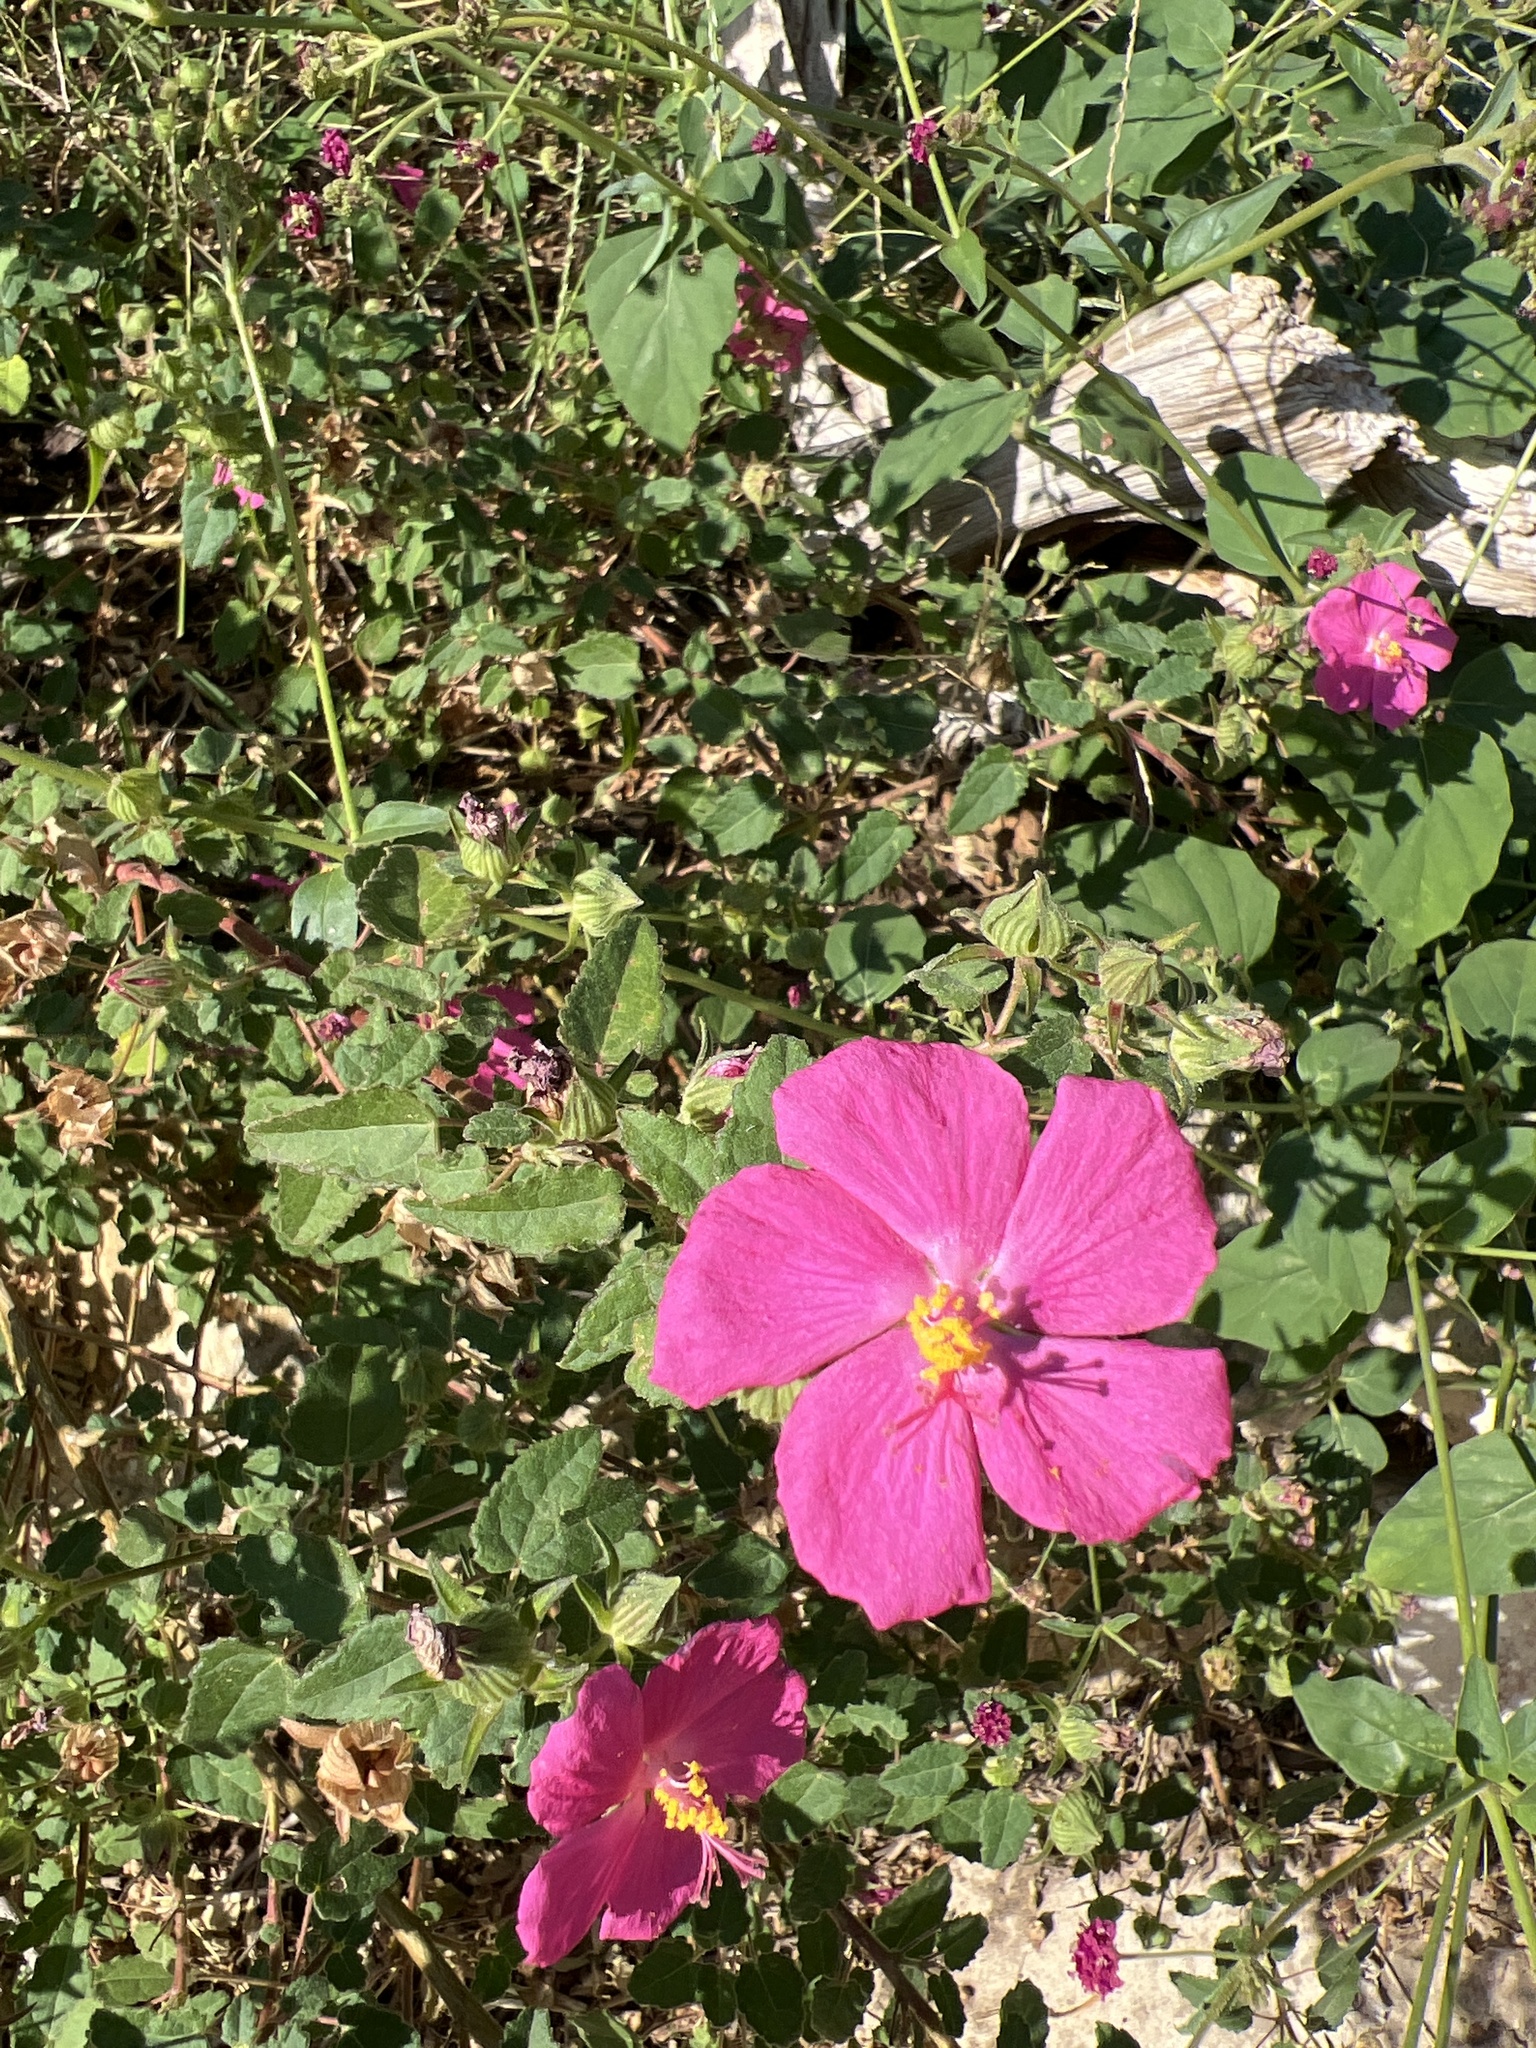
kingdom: Plantae
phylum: Tracheophyta
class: Magnoliopsida
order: Malvales
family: Malvaceae
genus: Pavonia
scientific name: Pavonia lasiopetala
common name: Texas swamp-mallow
